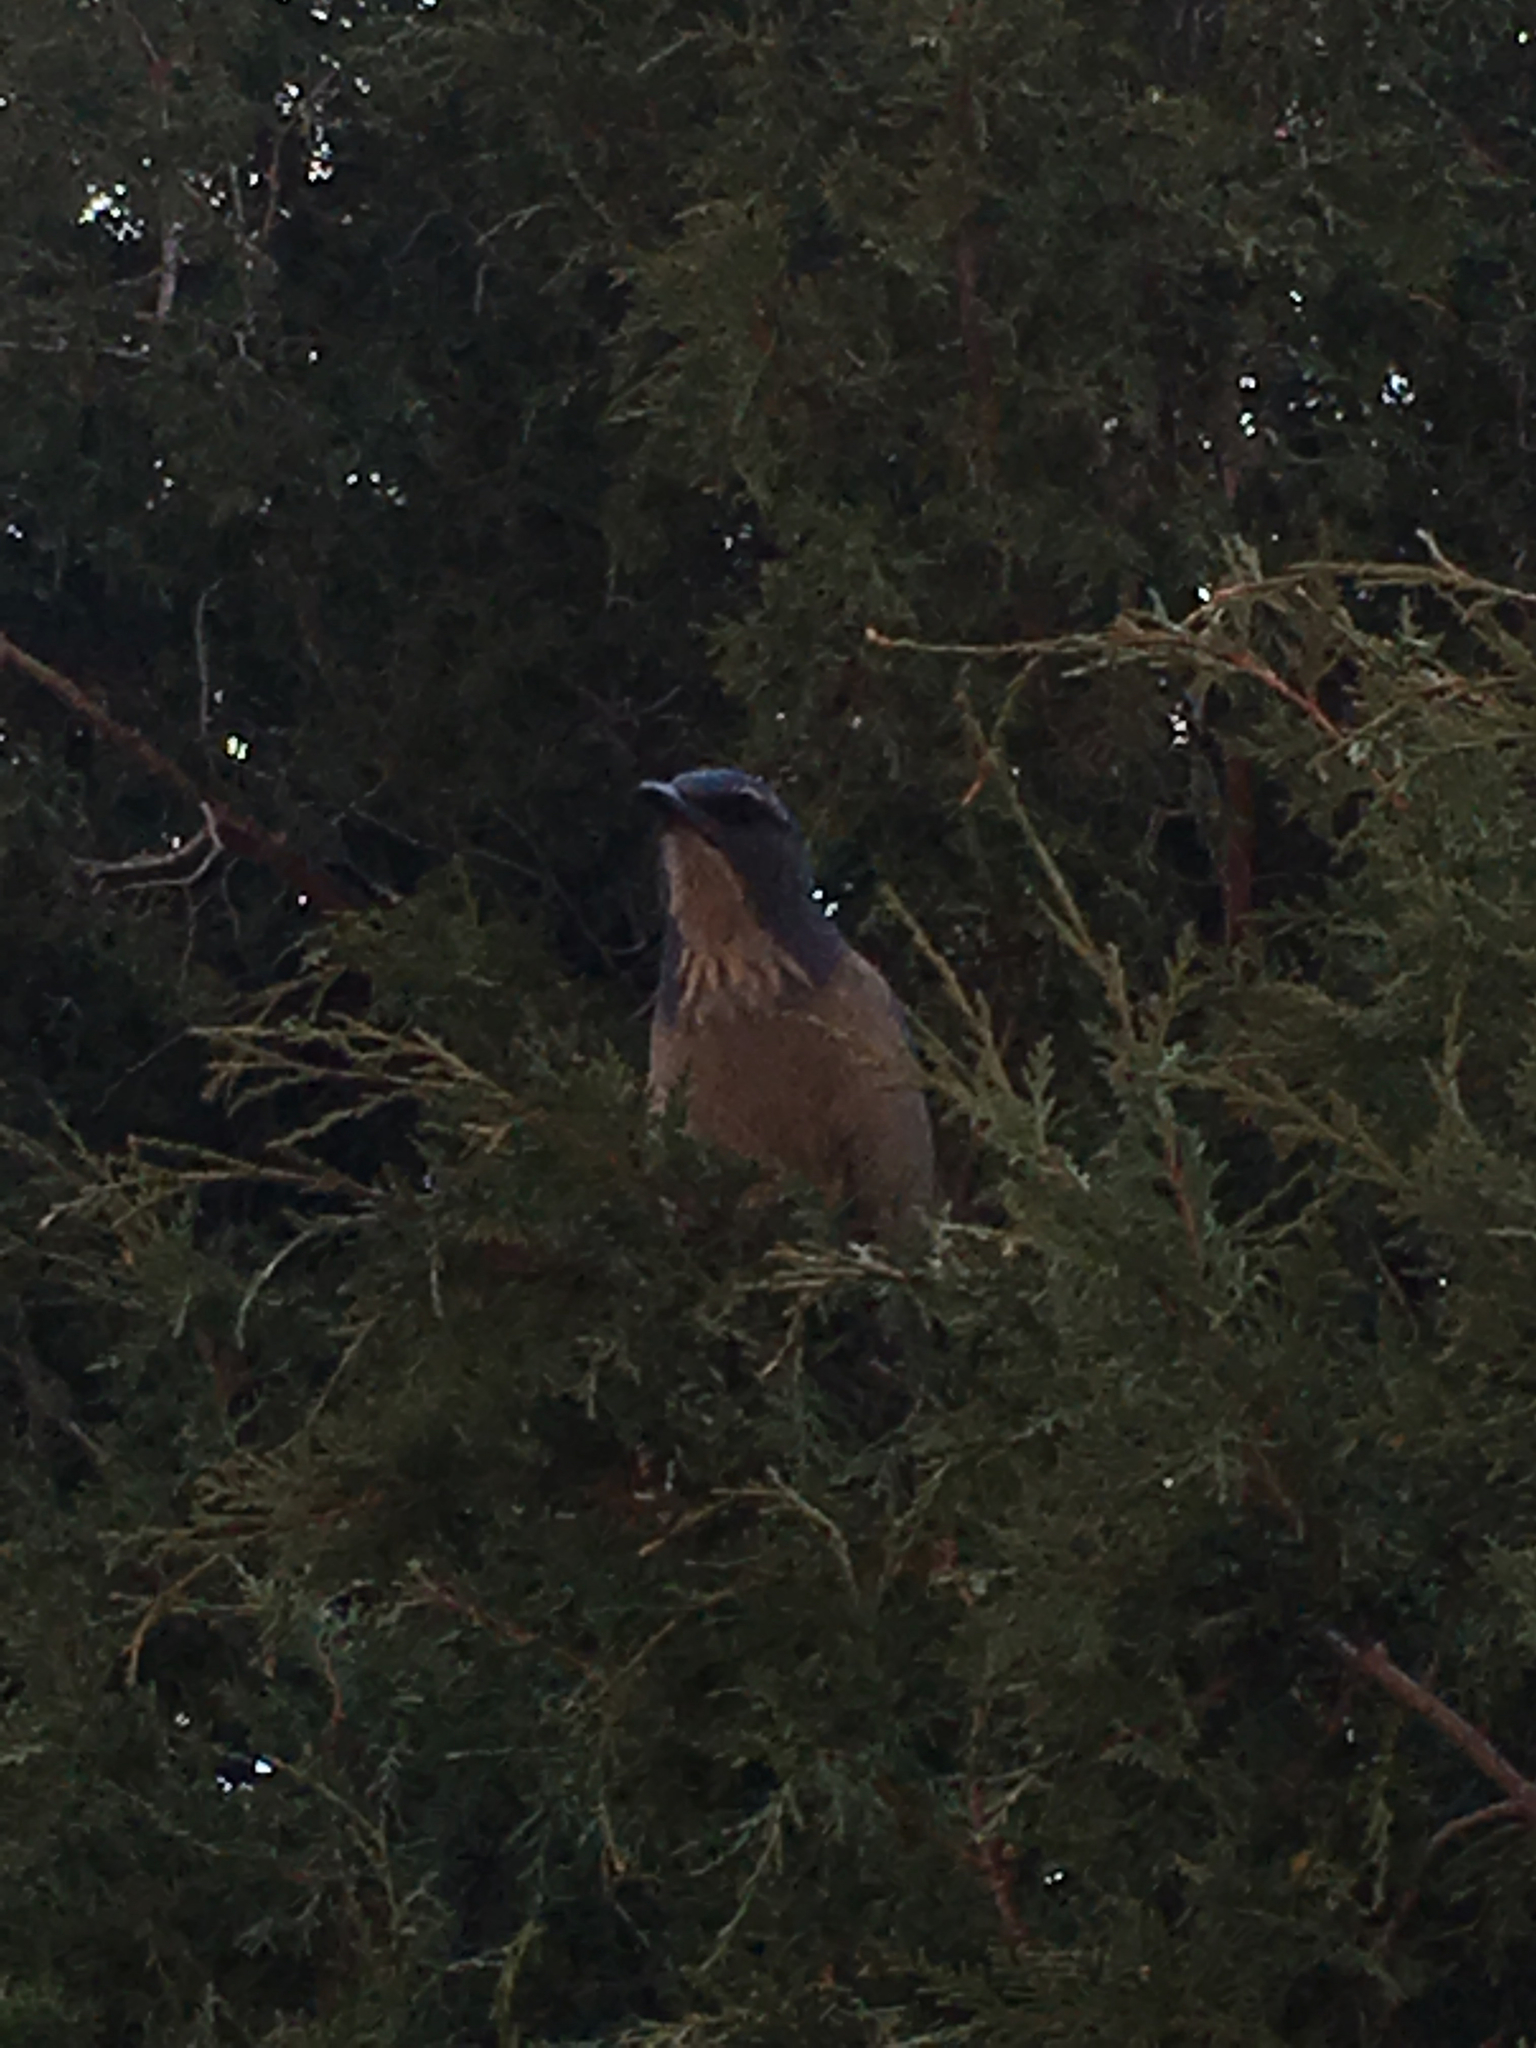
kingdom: Animalia
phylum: Chordata
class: Aves
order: Passeriformes
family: Corvidae
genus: Aphelocoma
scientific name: Aphelocoma woodhouseii
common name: Woodhouse's scrub-jay
